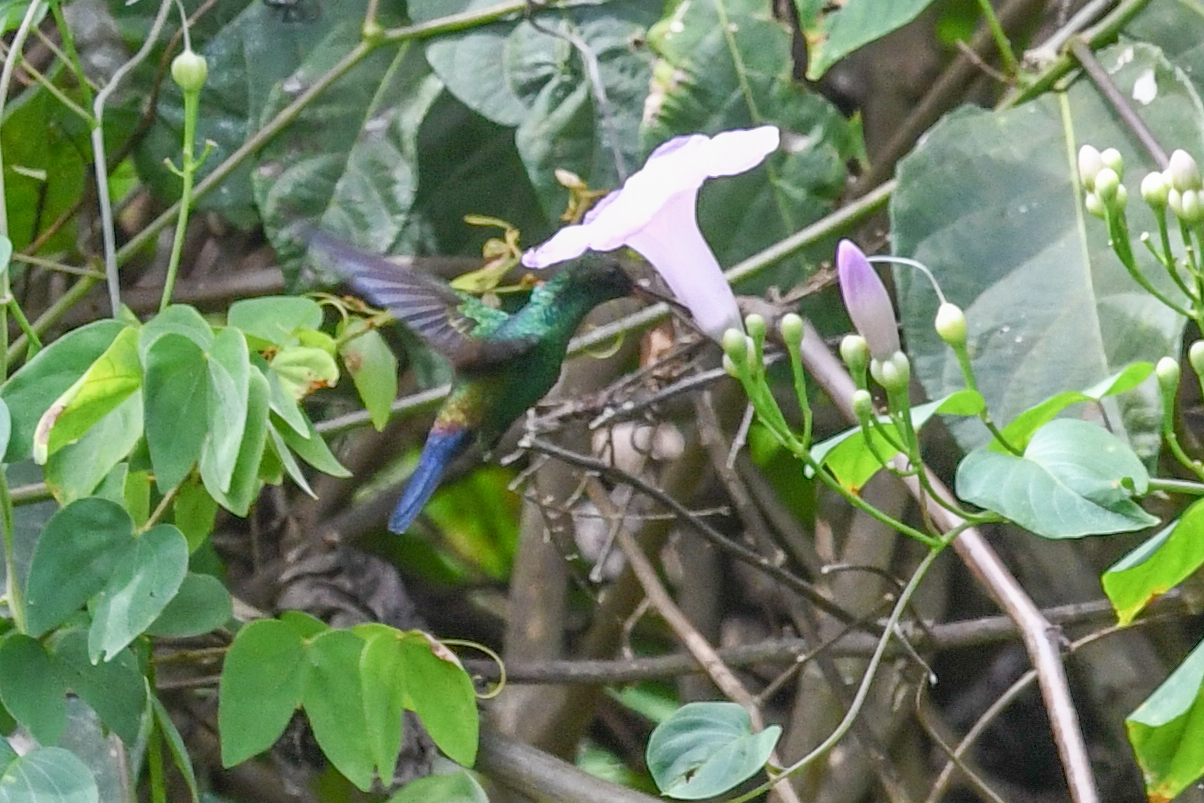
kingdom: Animalia
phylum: Chordata
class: Aves
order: Apodiformes
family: Trochilidae
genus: Saucerottia
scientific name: Saucerottia hoffmanni
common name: Blue-vented hummingbird
